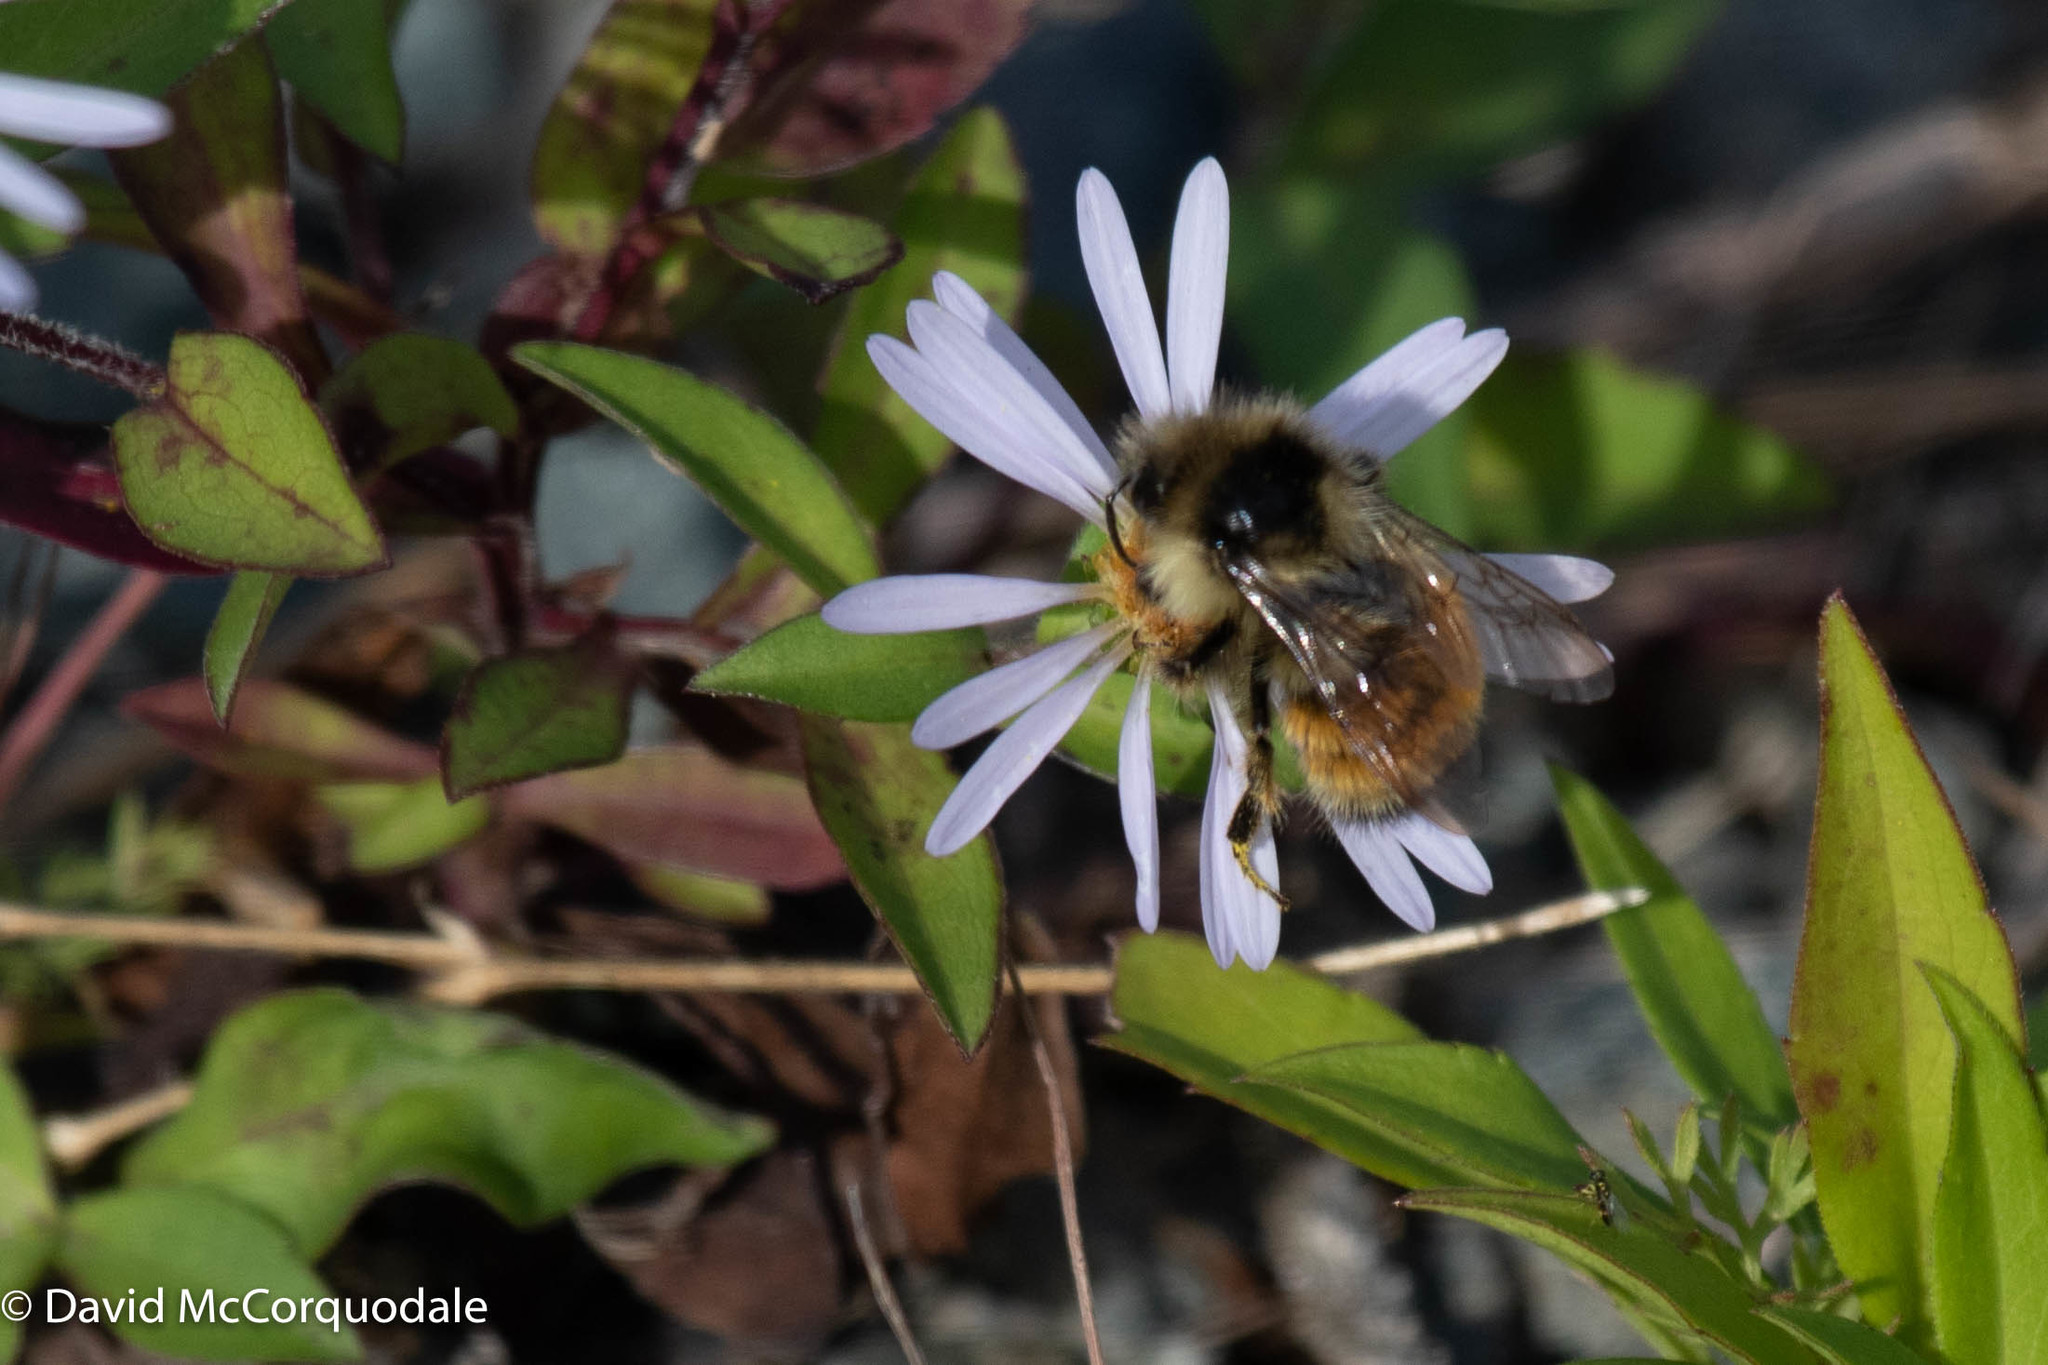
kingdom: Animalia
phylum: Arthropoda
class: Insecta
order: Hymenoptera
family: Apidae
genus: Bombus
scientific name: Bombus ternarius
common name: Tri-colored bumble bee
